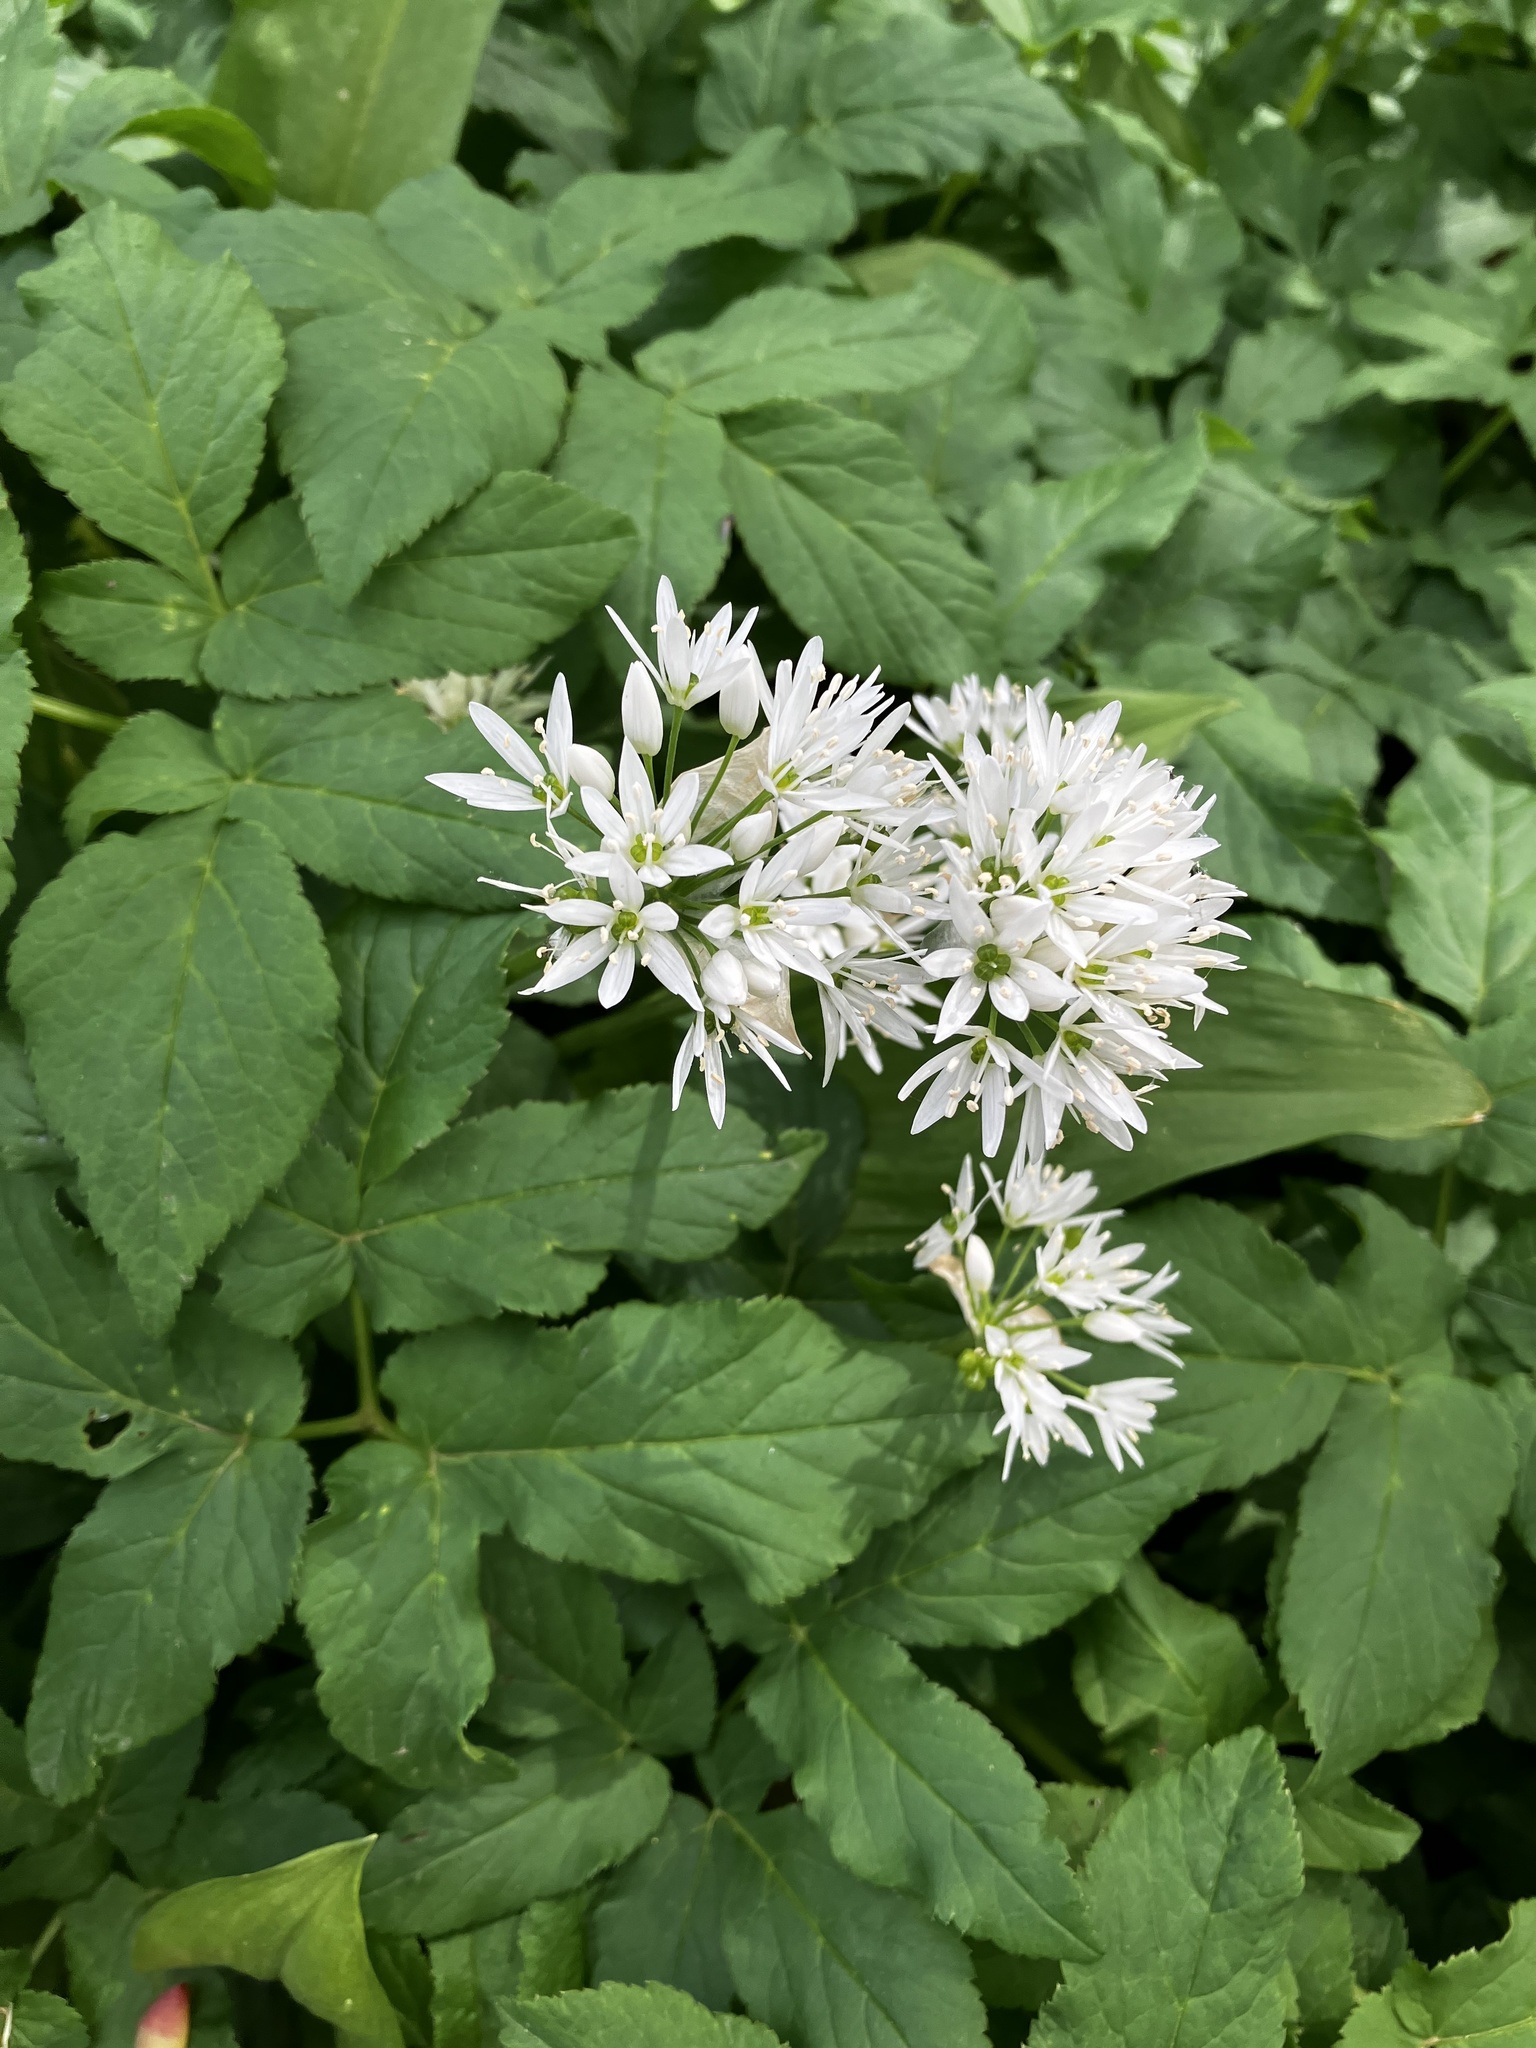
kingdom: Plantae
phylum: Tracheophyta
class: Liliopsida
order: Asparagales
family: Amaryllidaceae
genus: Allium
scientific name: Allium ursinum
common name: Ramsons
